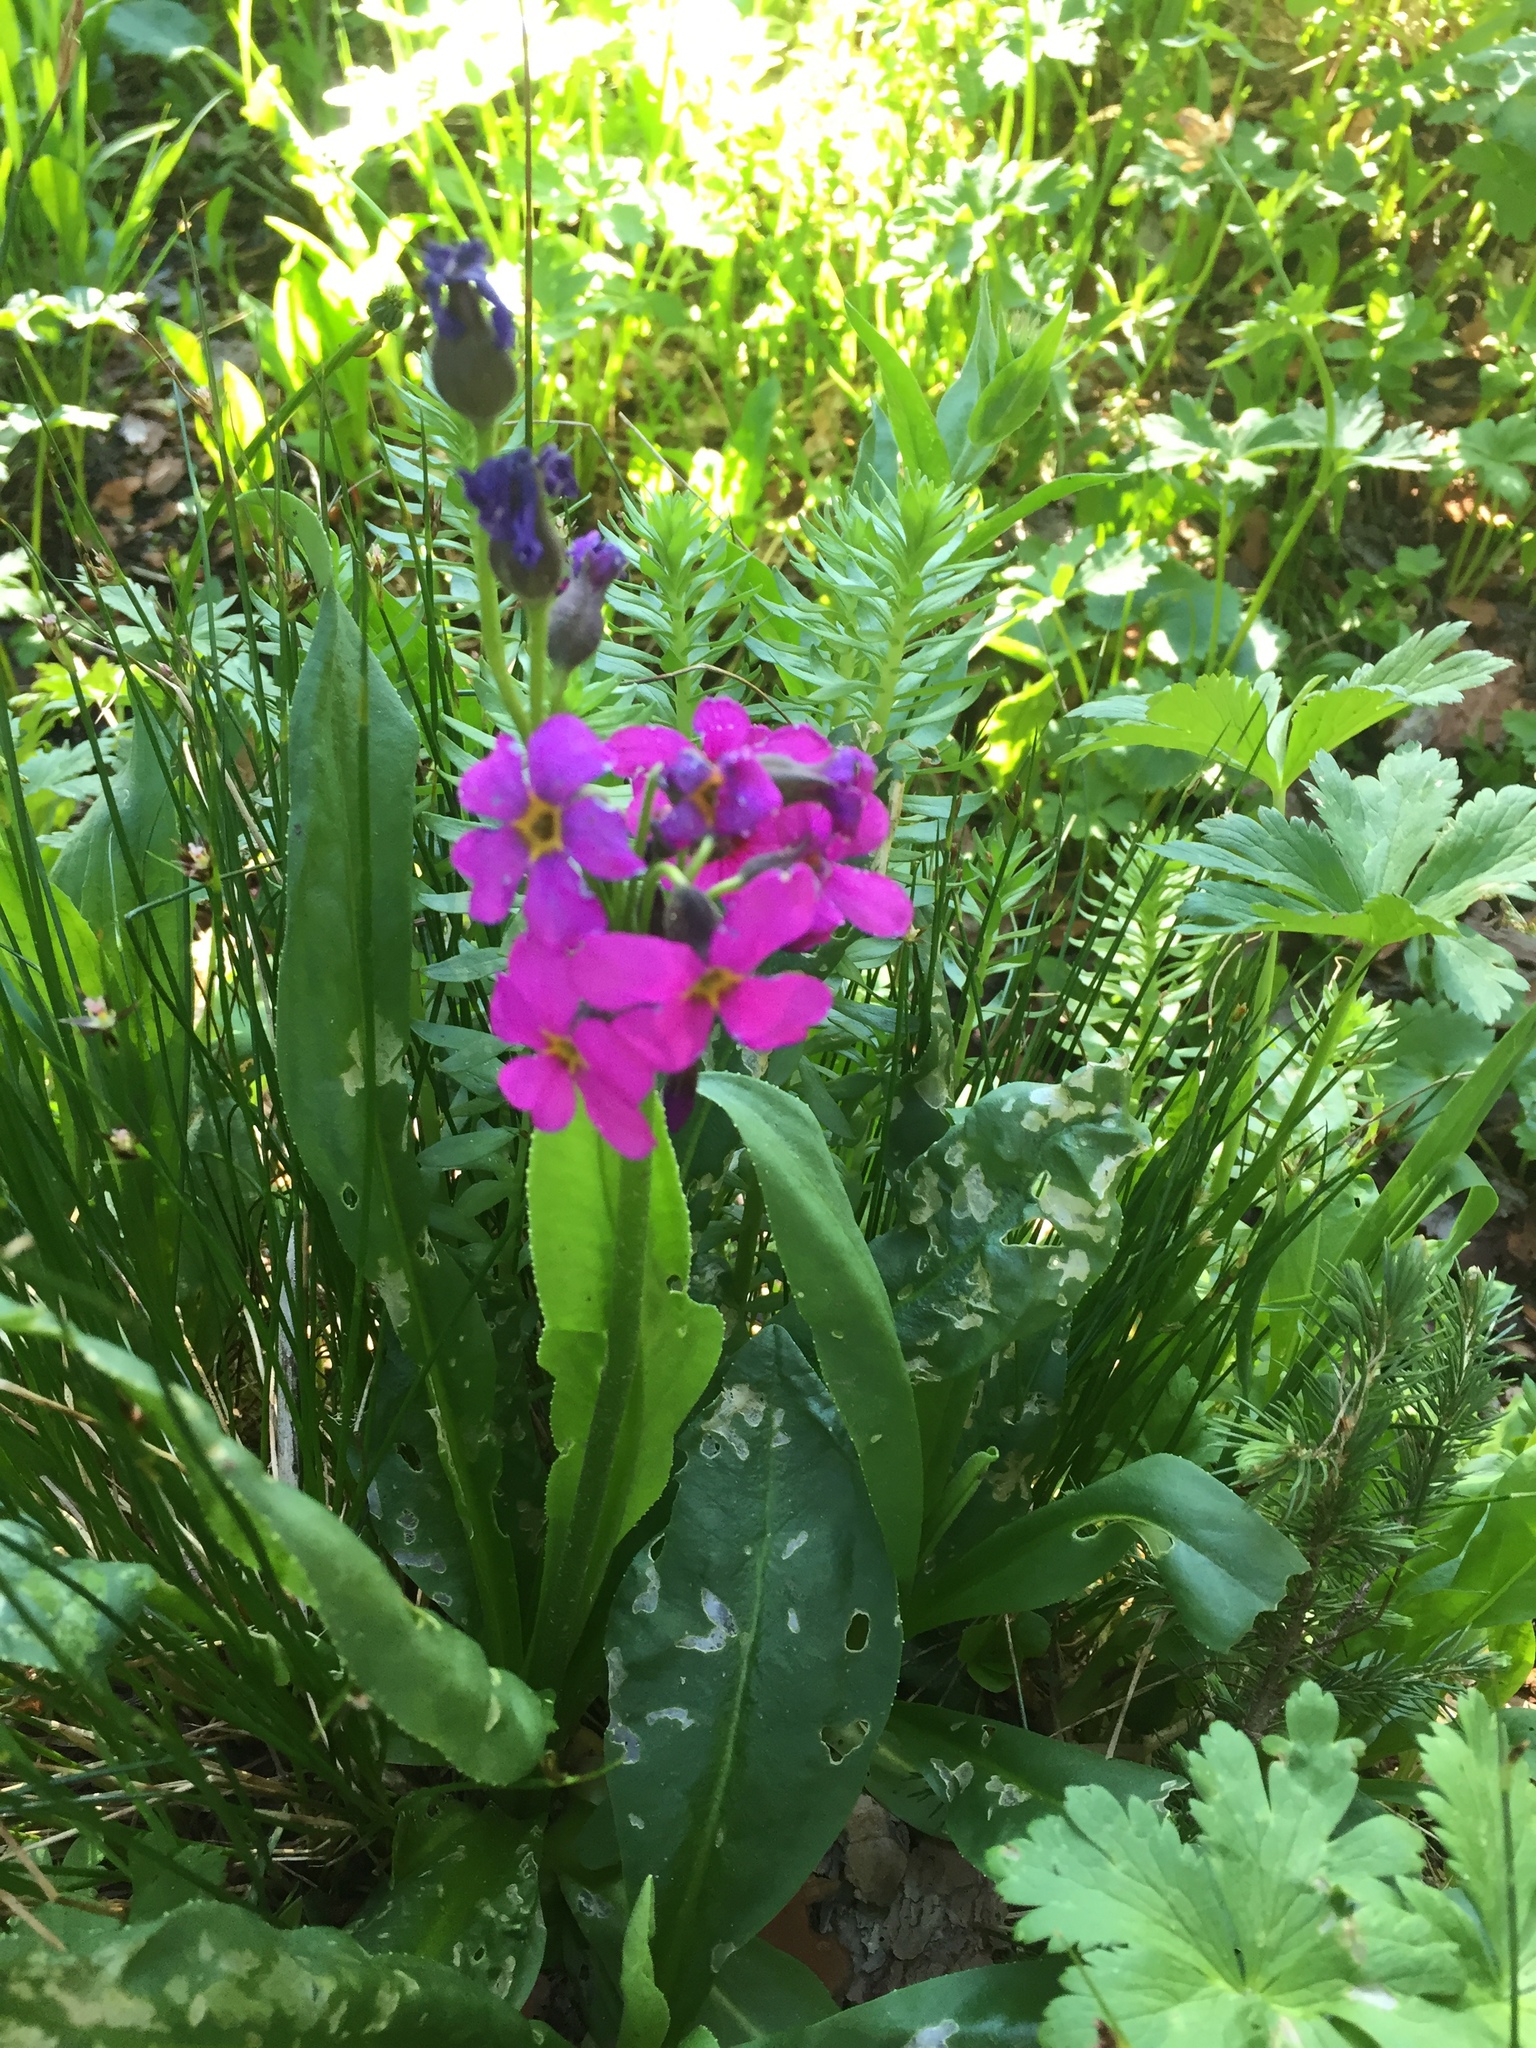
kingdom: Plantae
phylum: Tracheophyta
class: Magnoliopsida
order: Ericales
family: Primulaceae
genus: Primula
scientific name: Primula parryi
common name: Parry's primrose
